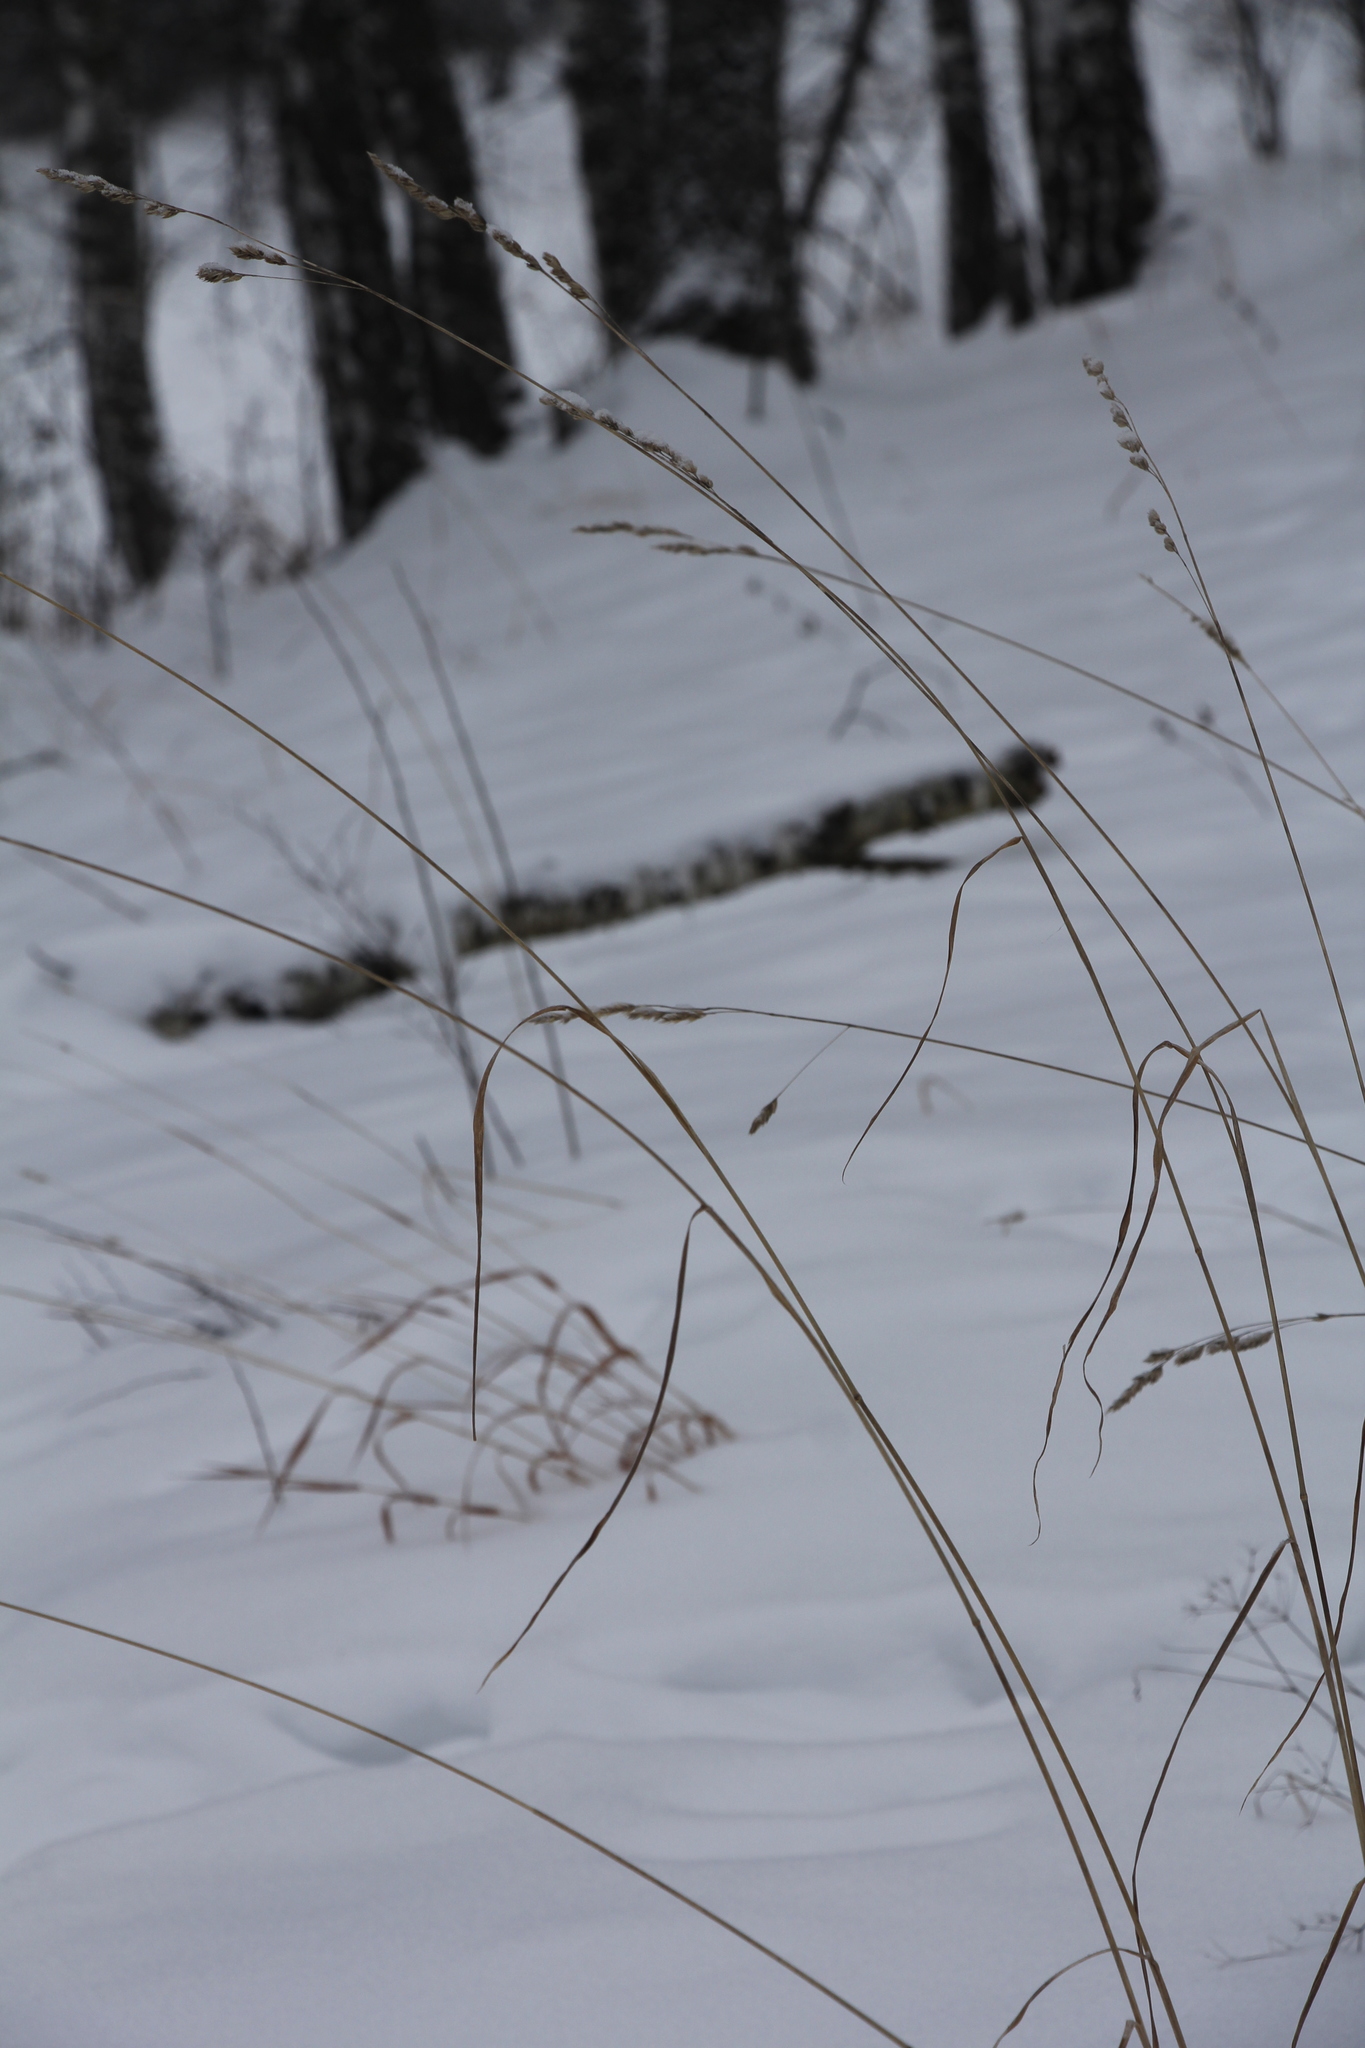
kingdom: Plantae
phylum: Tracheophyta
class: Liliopsida
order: Poales
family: Poaceae
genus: Dactylis
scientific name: Dactylis glomerata
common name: Orchardgrass
